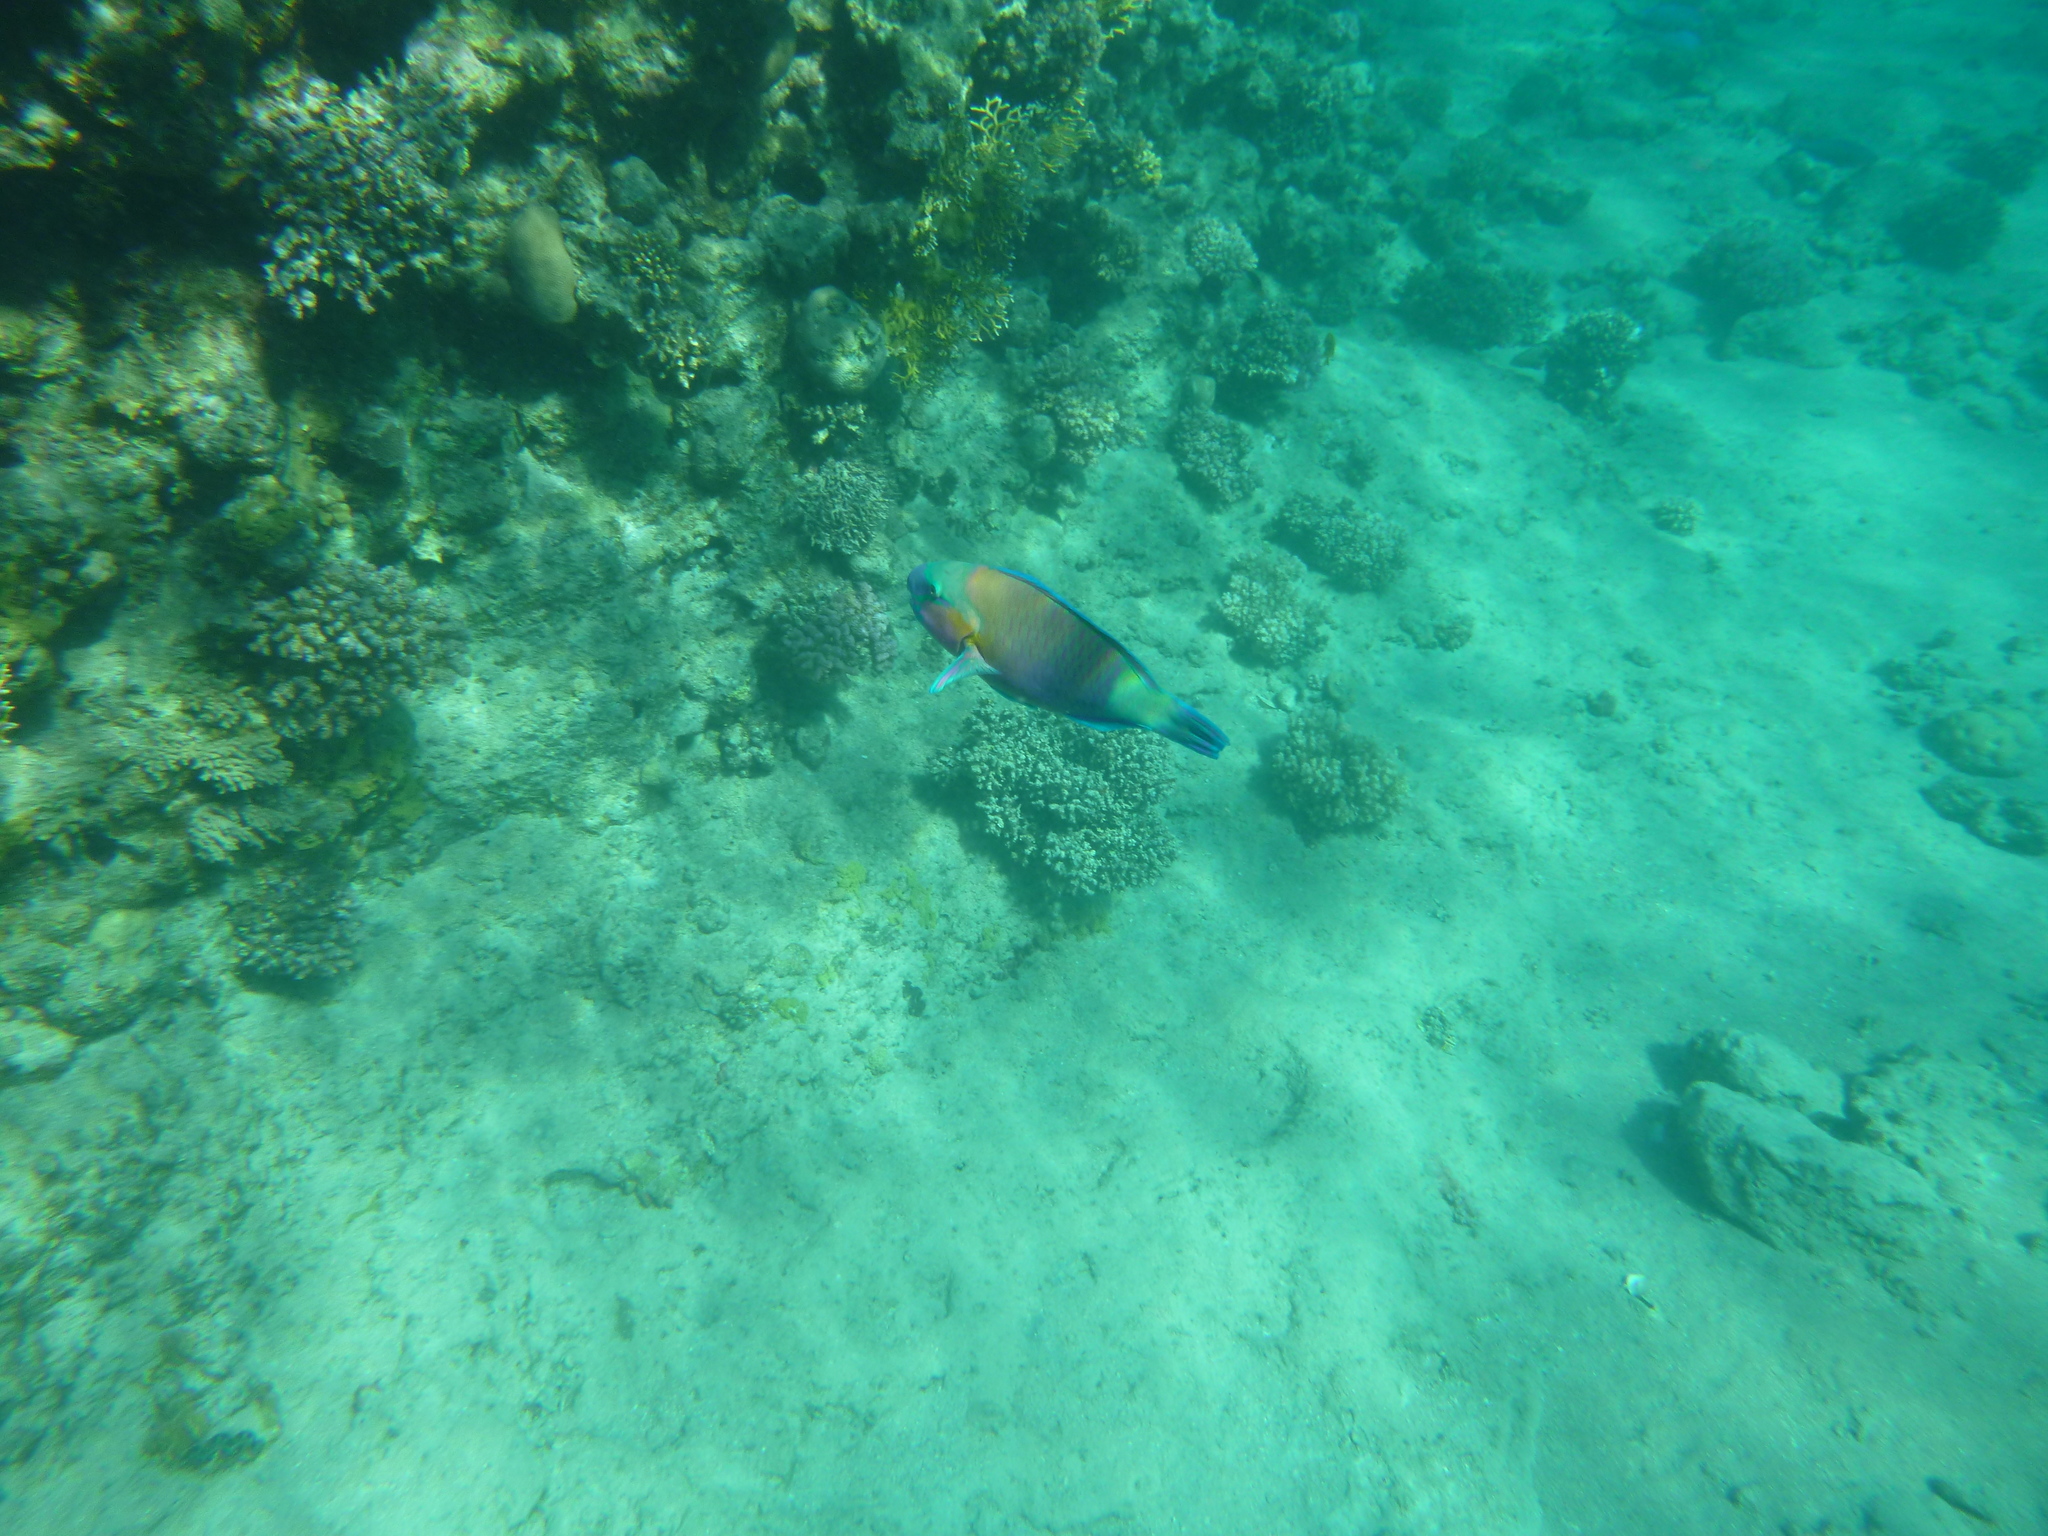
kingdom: Animalia
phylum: Chordata
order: Perciformes
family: Scaridae
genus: Chlorurus
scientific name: Chlorurus sordidus
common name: Bullethead parrotfish
